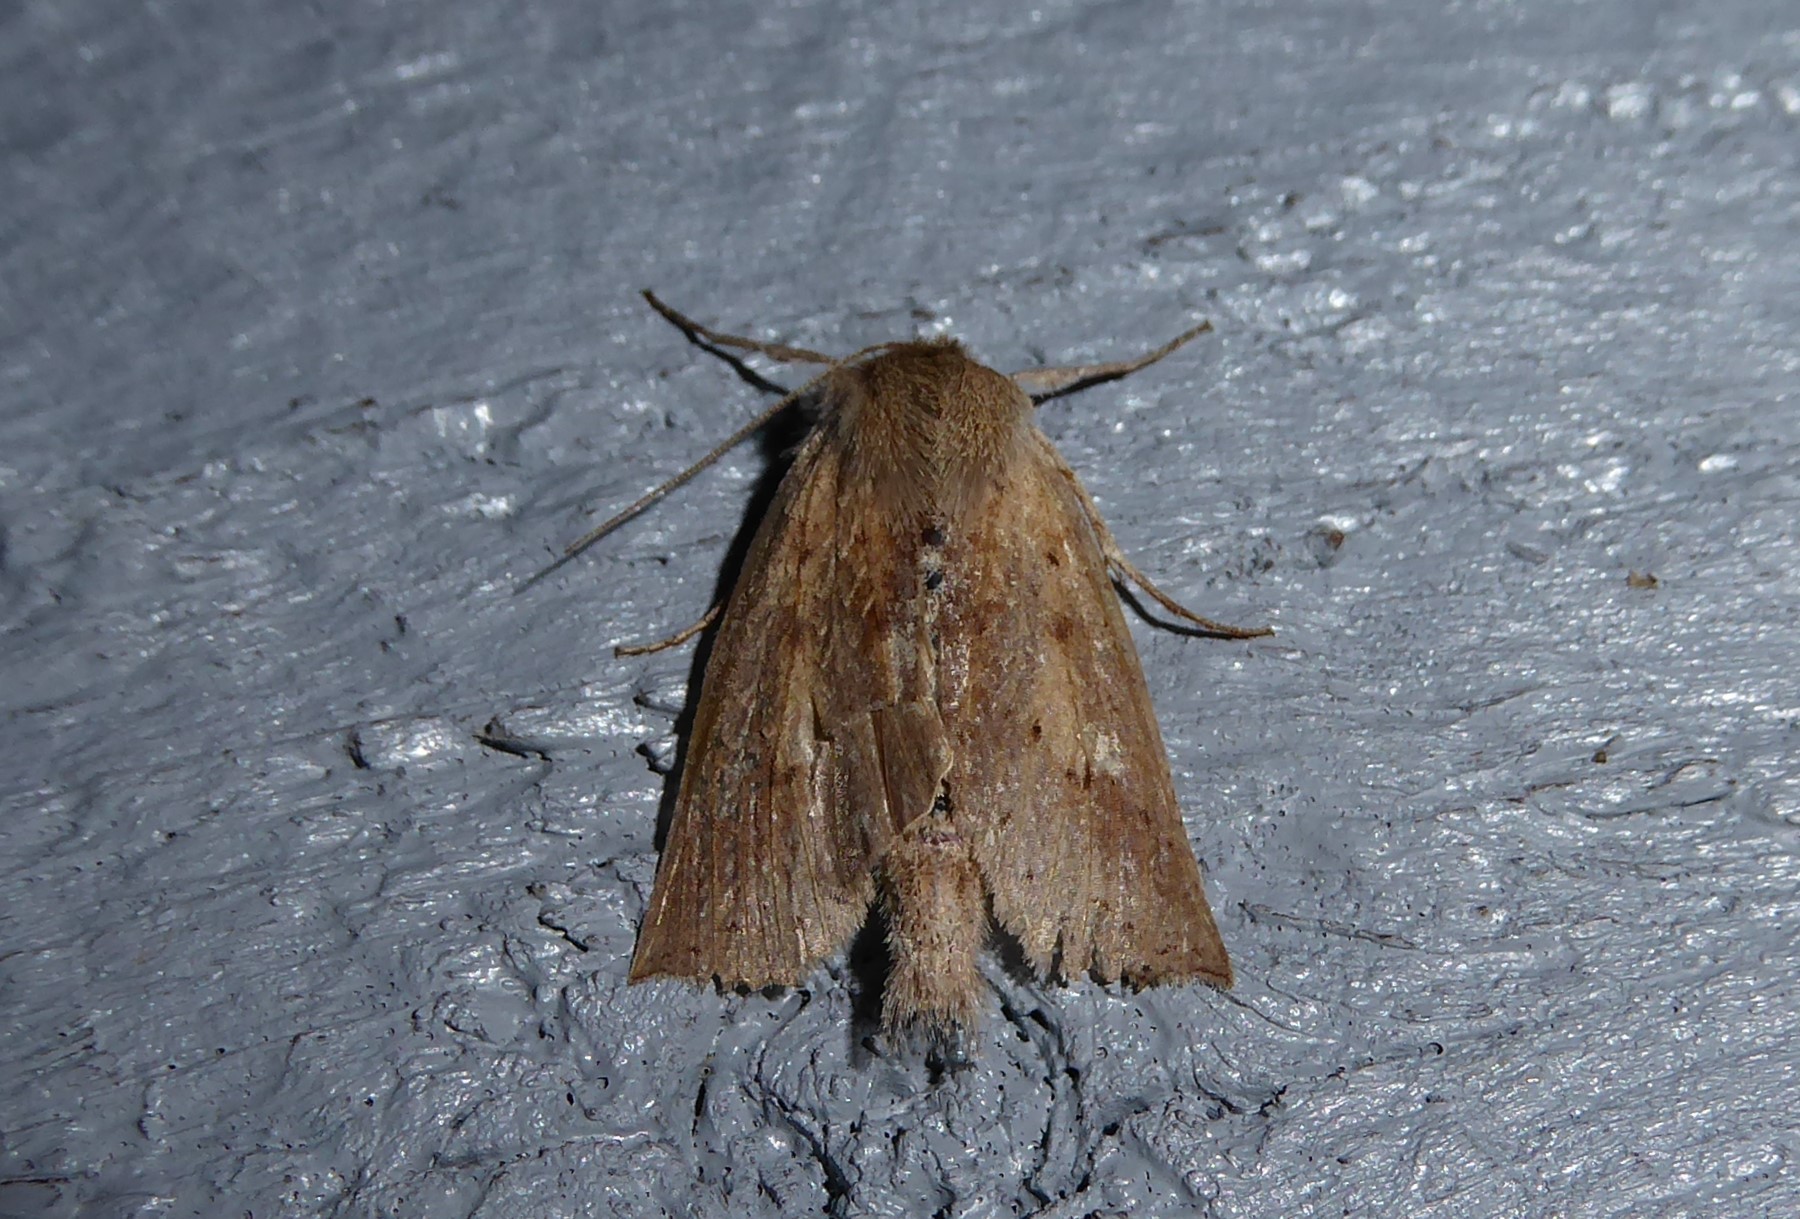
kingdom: Animalia
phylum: Arthropoda
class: Insecta
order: Lepidoptera
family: Geometridae
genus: Declana
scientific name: Declana leptomera
